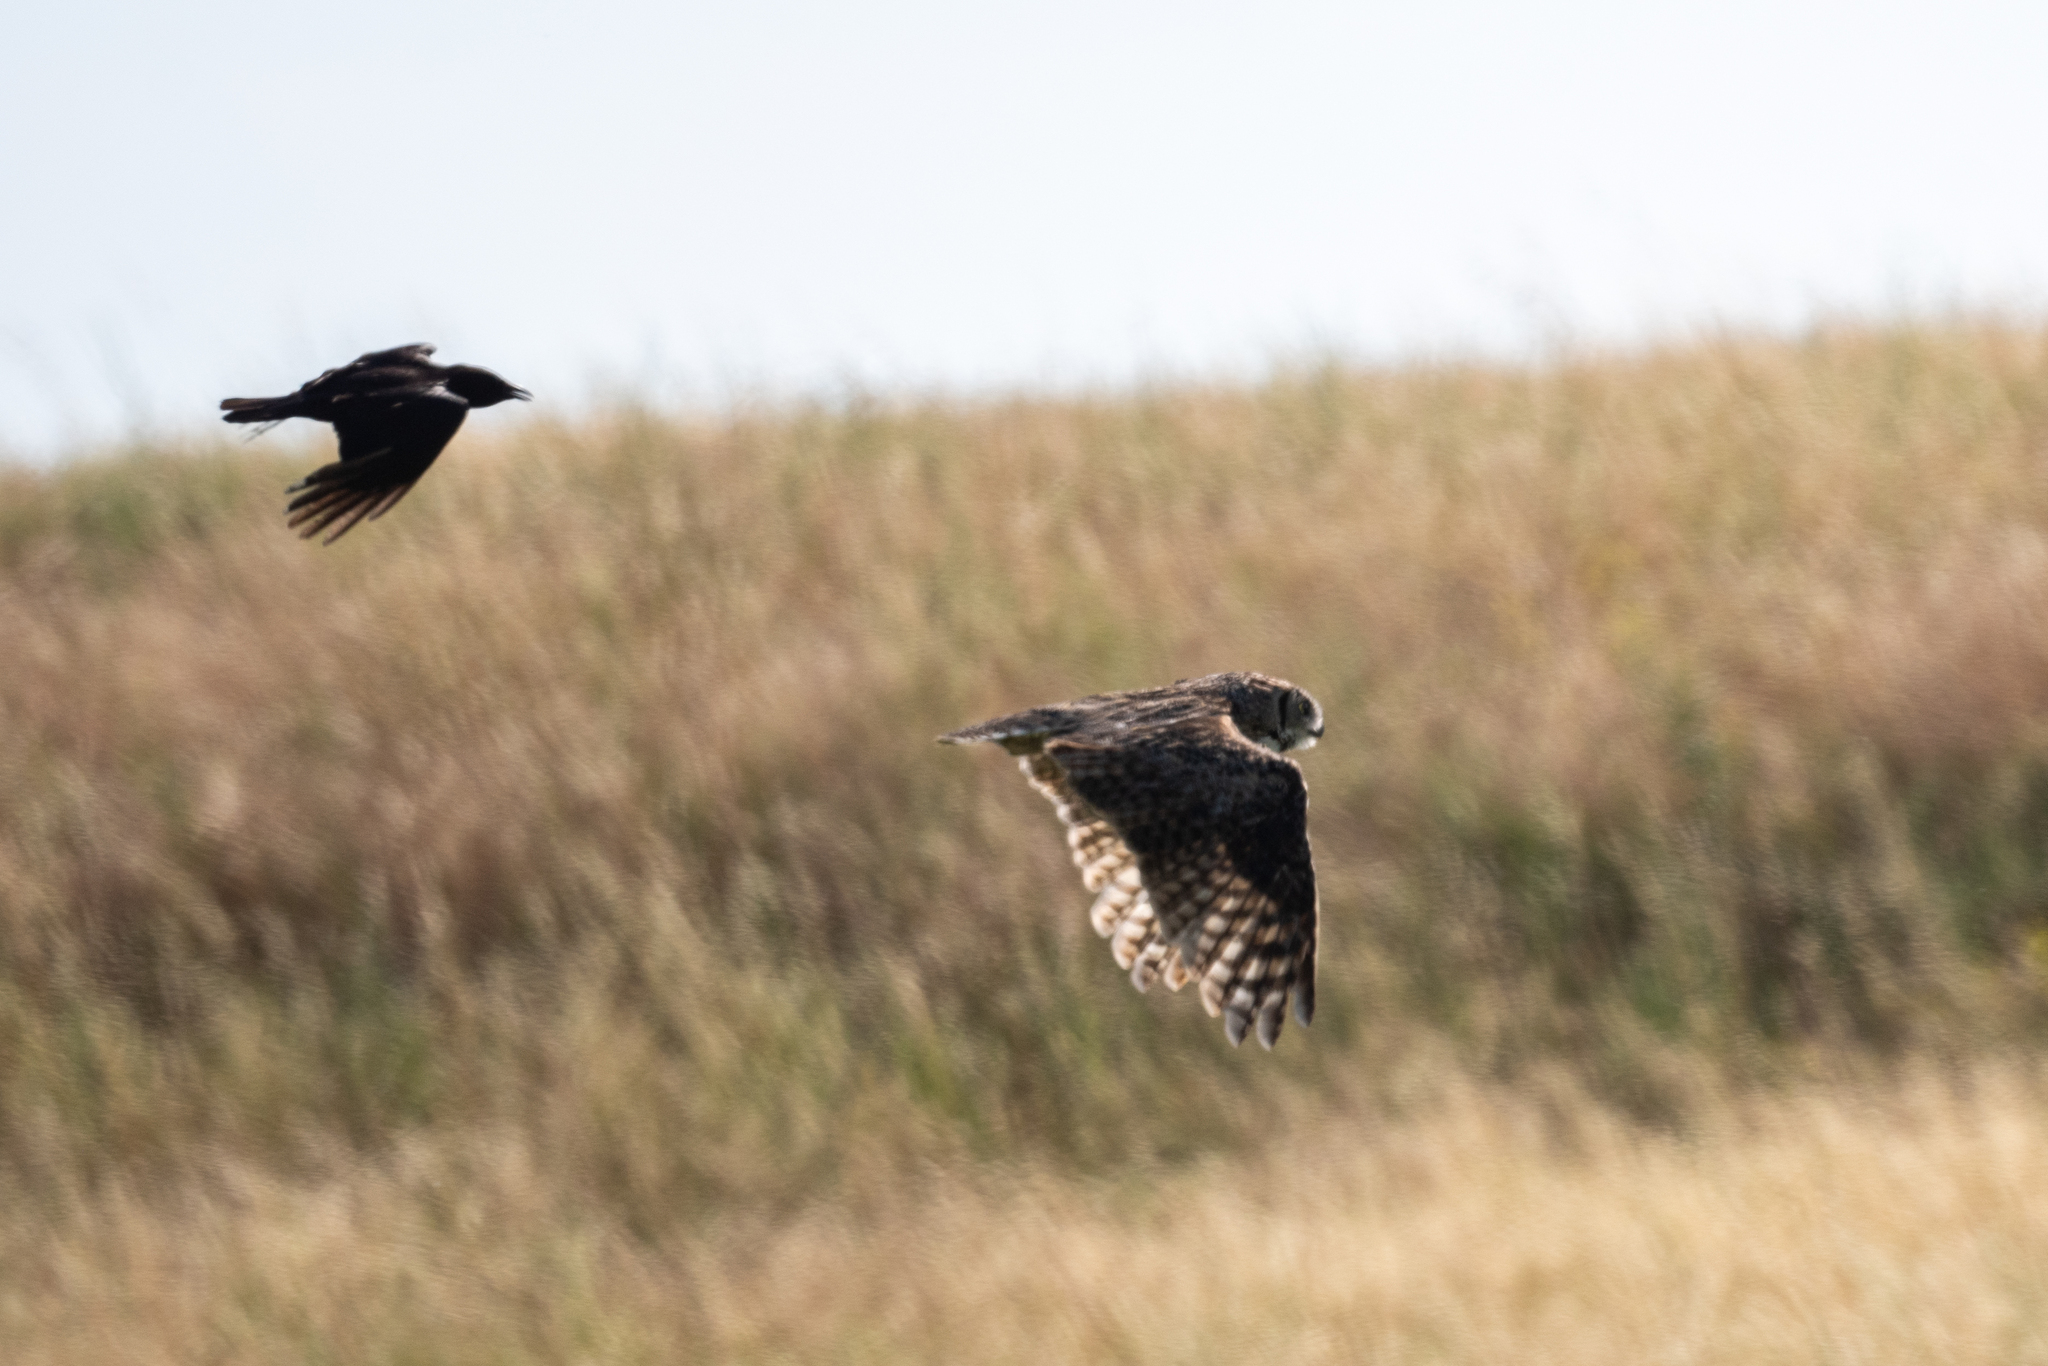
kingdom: Animalia
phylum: Chordata
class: Aves
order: Strigiformes
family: Strigidae
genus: Bubo
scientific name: Bubo virginianus
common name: Great horned owl
